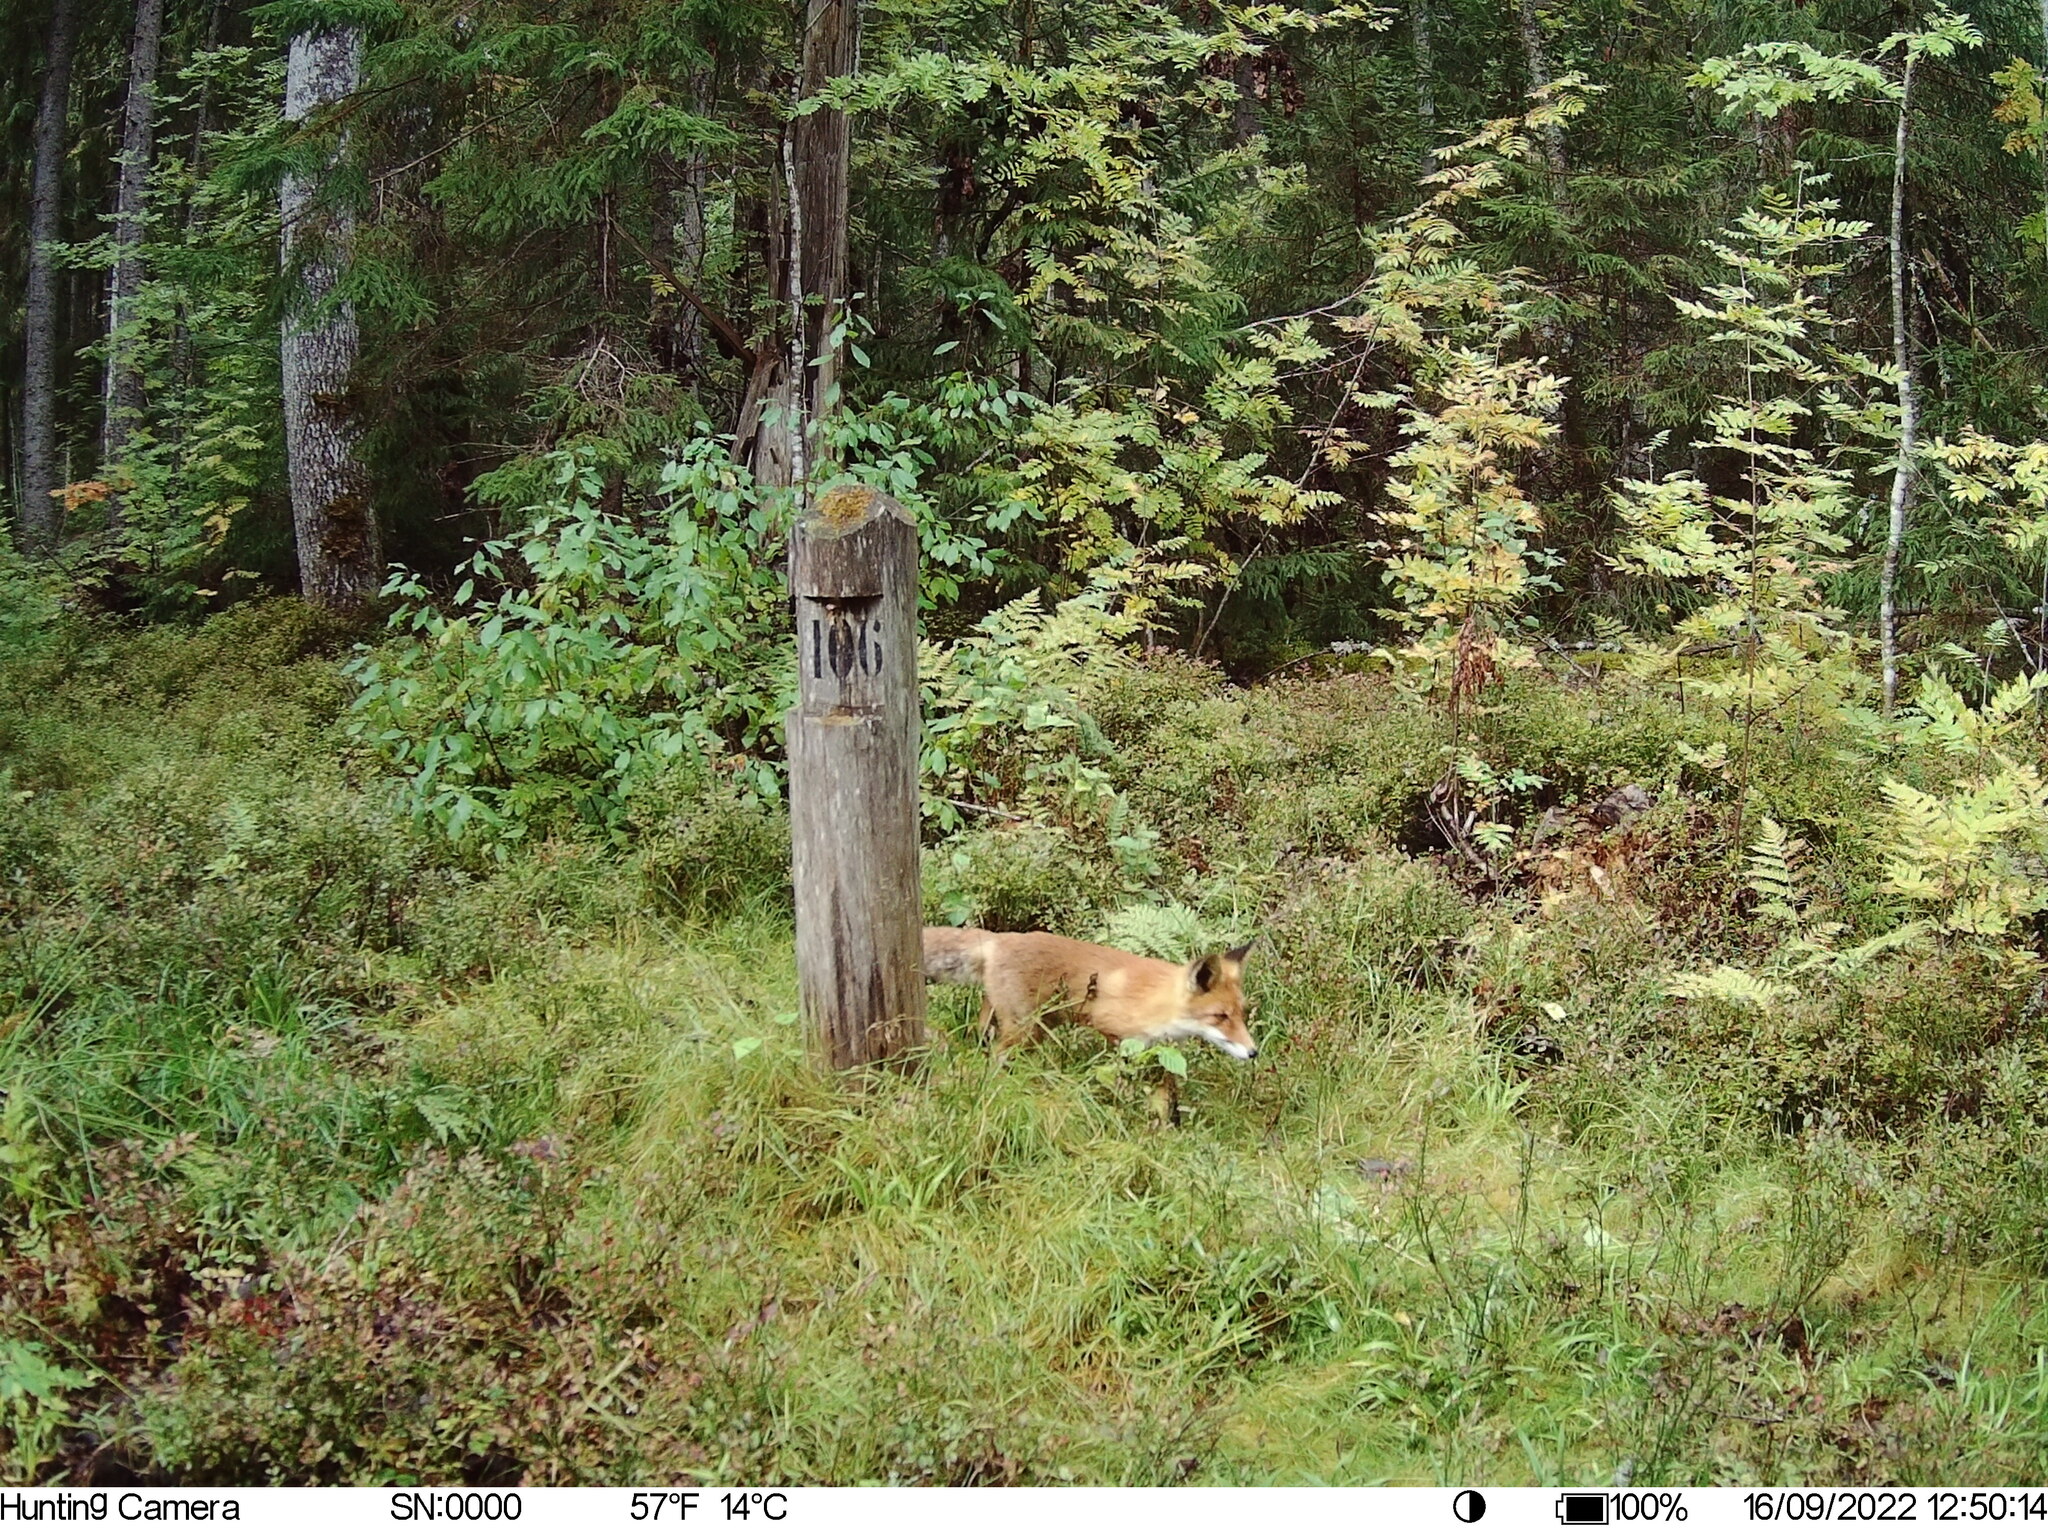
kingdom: Animalia
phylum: Chordata
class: Mammalia
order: Carnivora
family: Canidae
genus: Vulpes
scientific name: Vulpes vulpes
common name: Red fox
